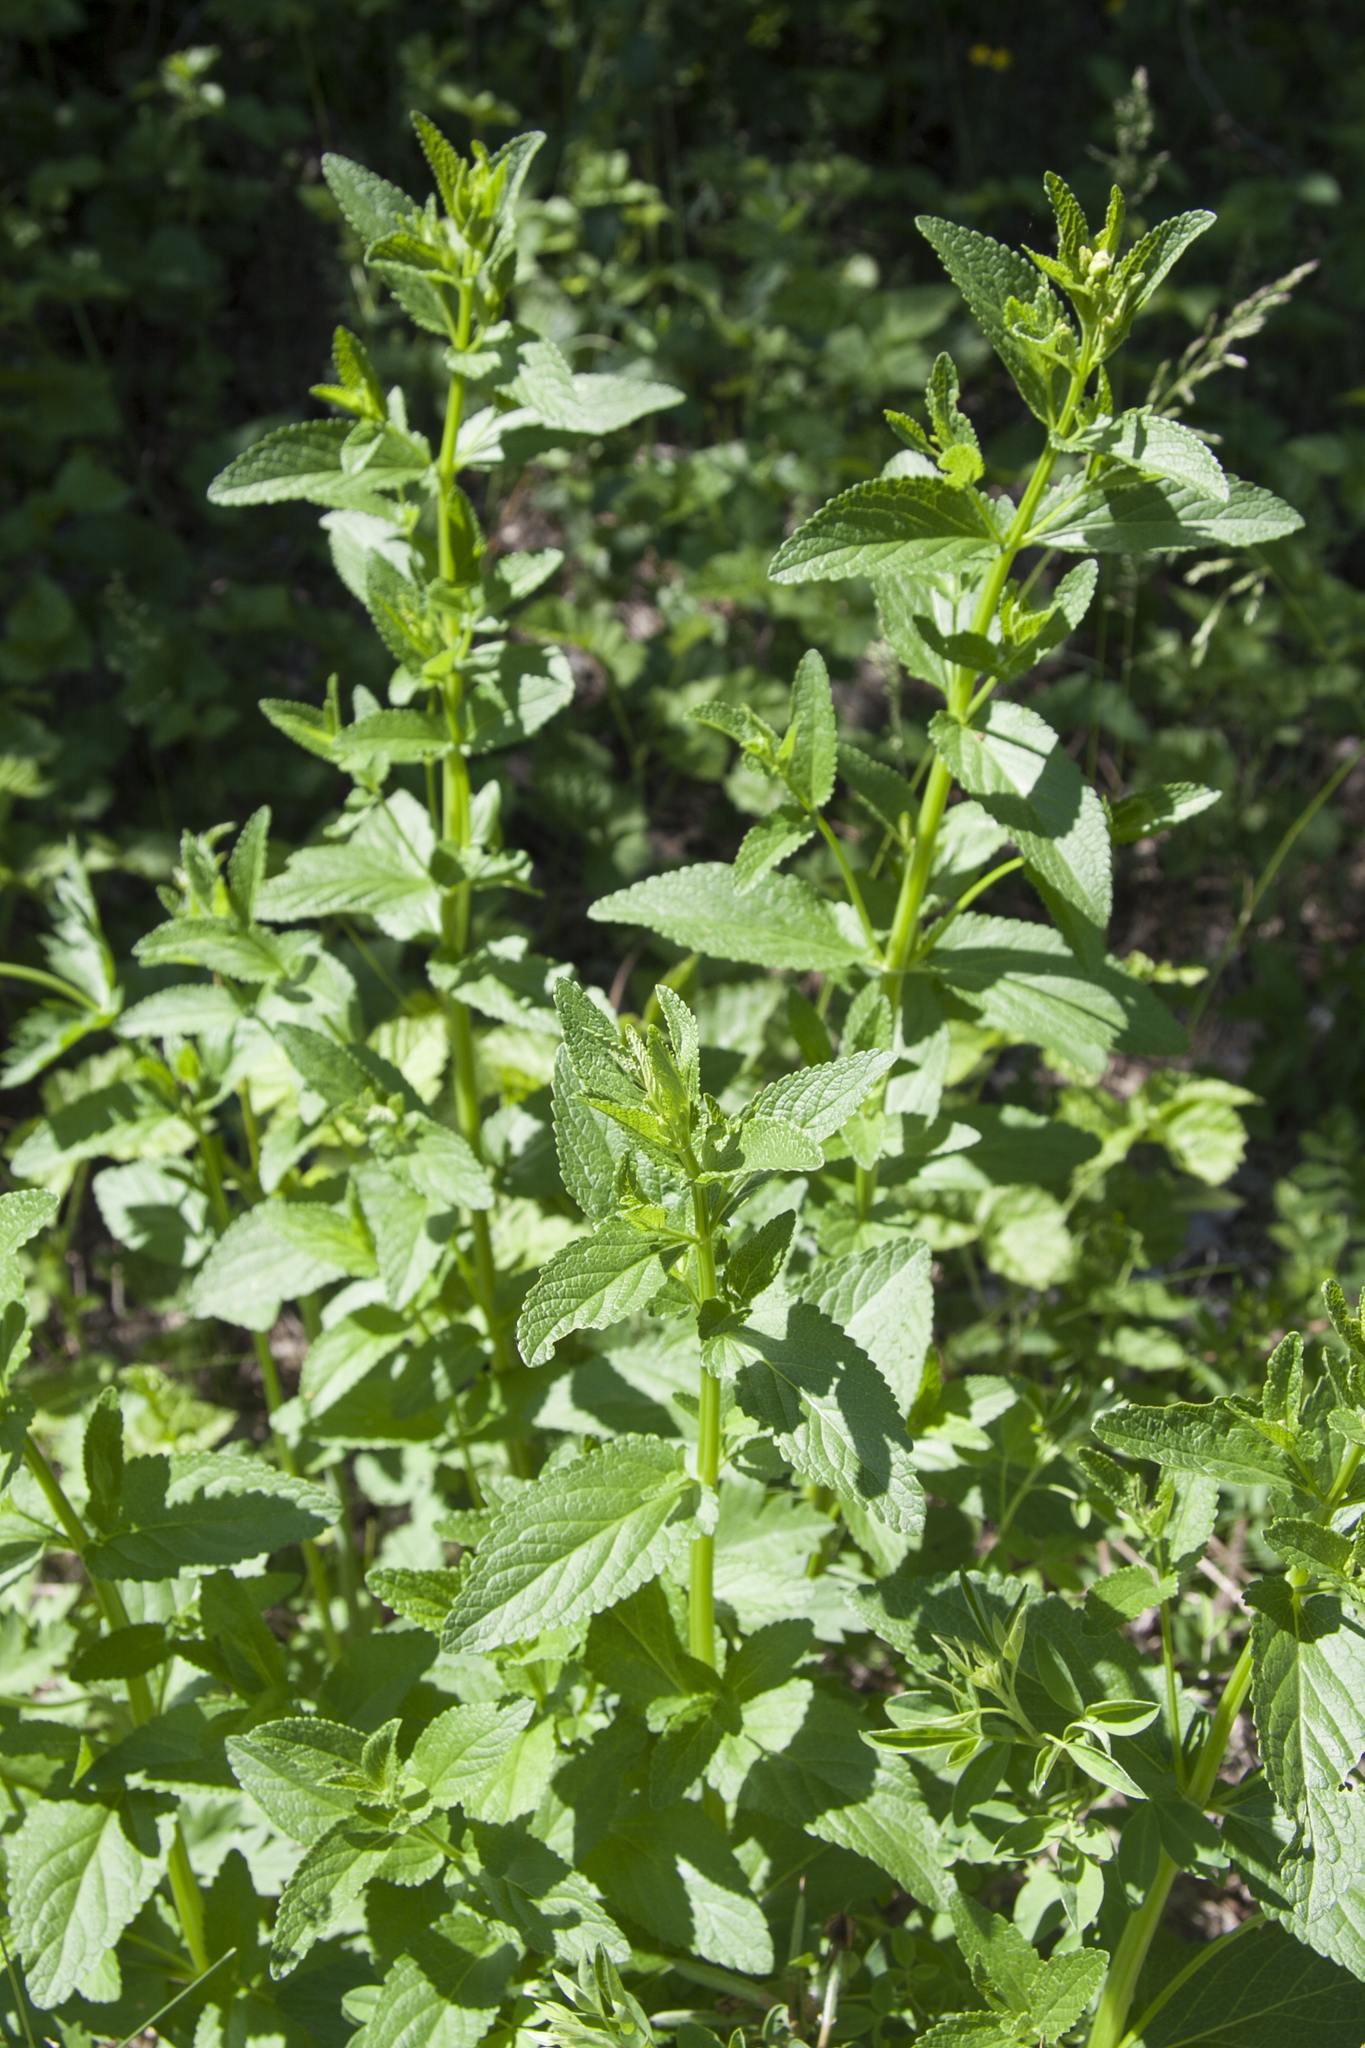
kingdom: Plantae
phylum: Tracheophyta
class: Magnoliopsida
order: Lamiales
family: Lamiaceae
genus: Nepeta
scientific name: Nepeta nuda
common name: Hairless catmint
